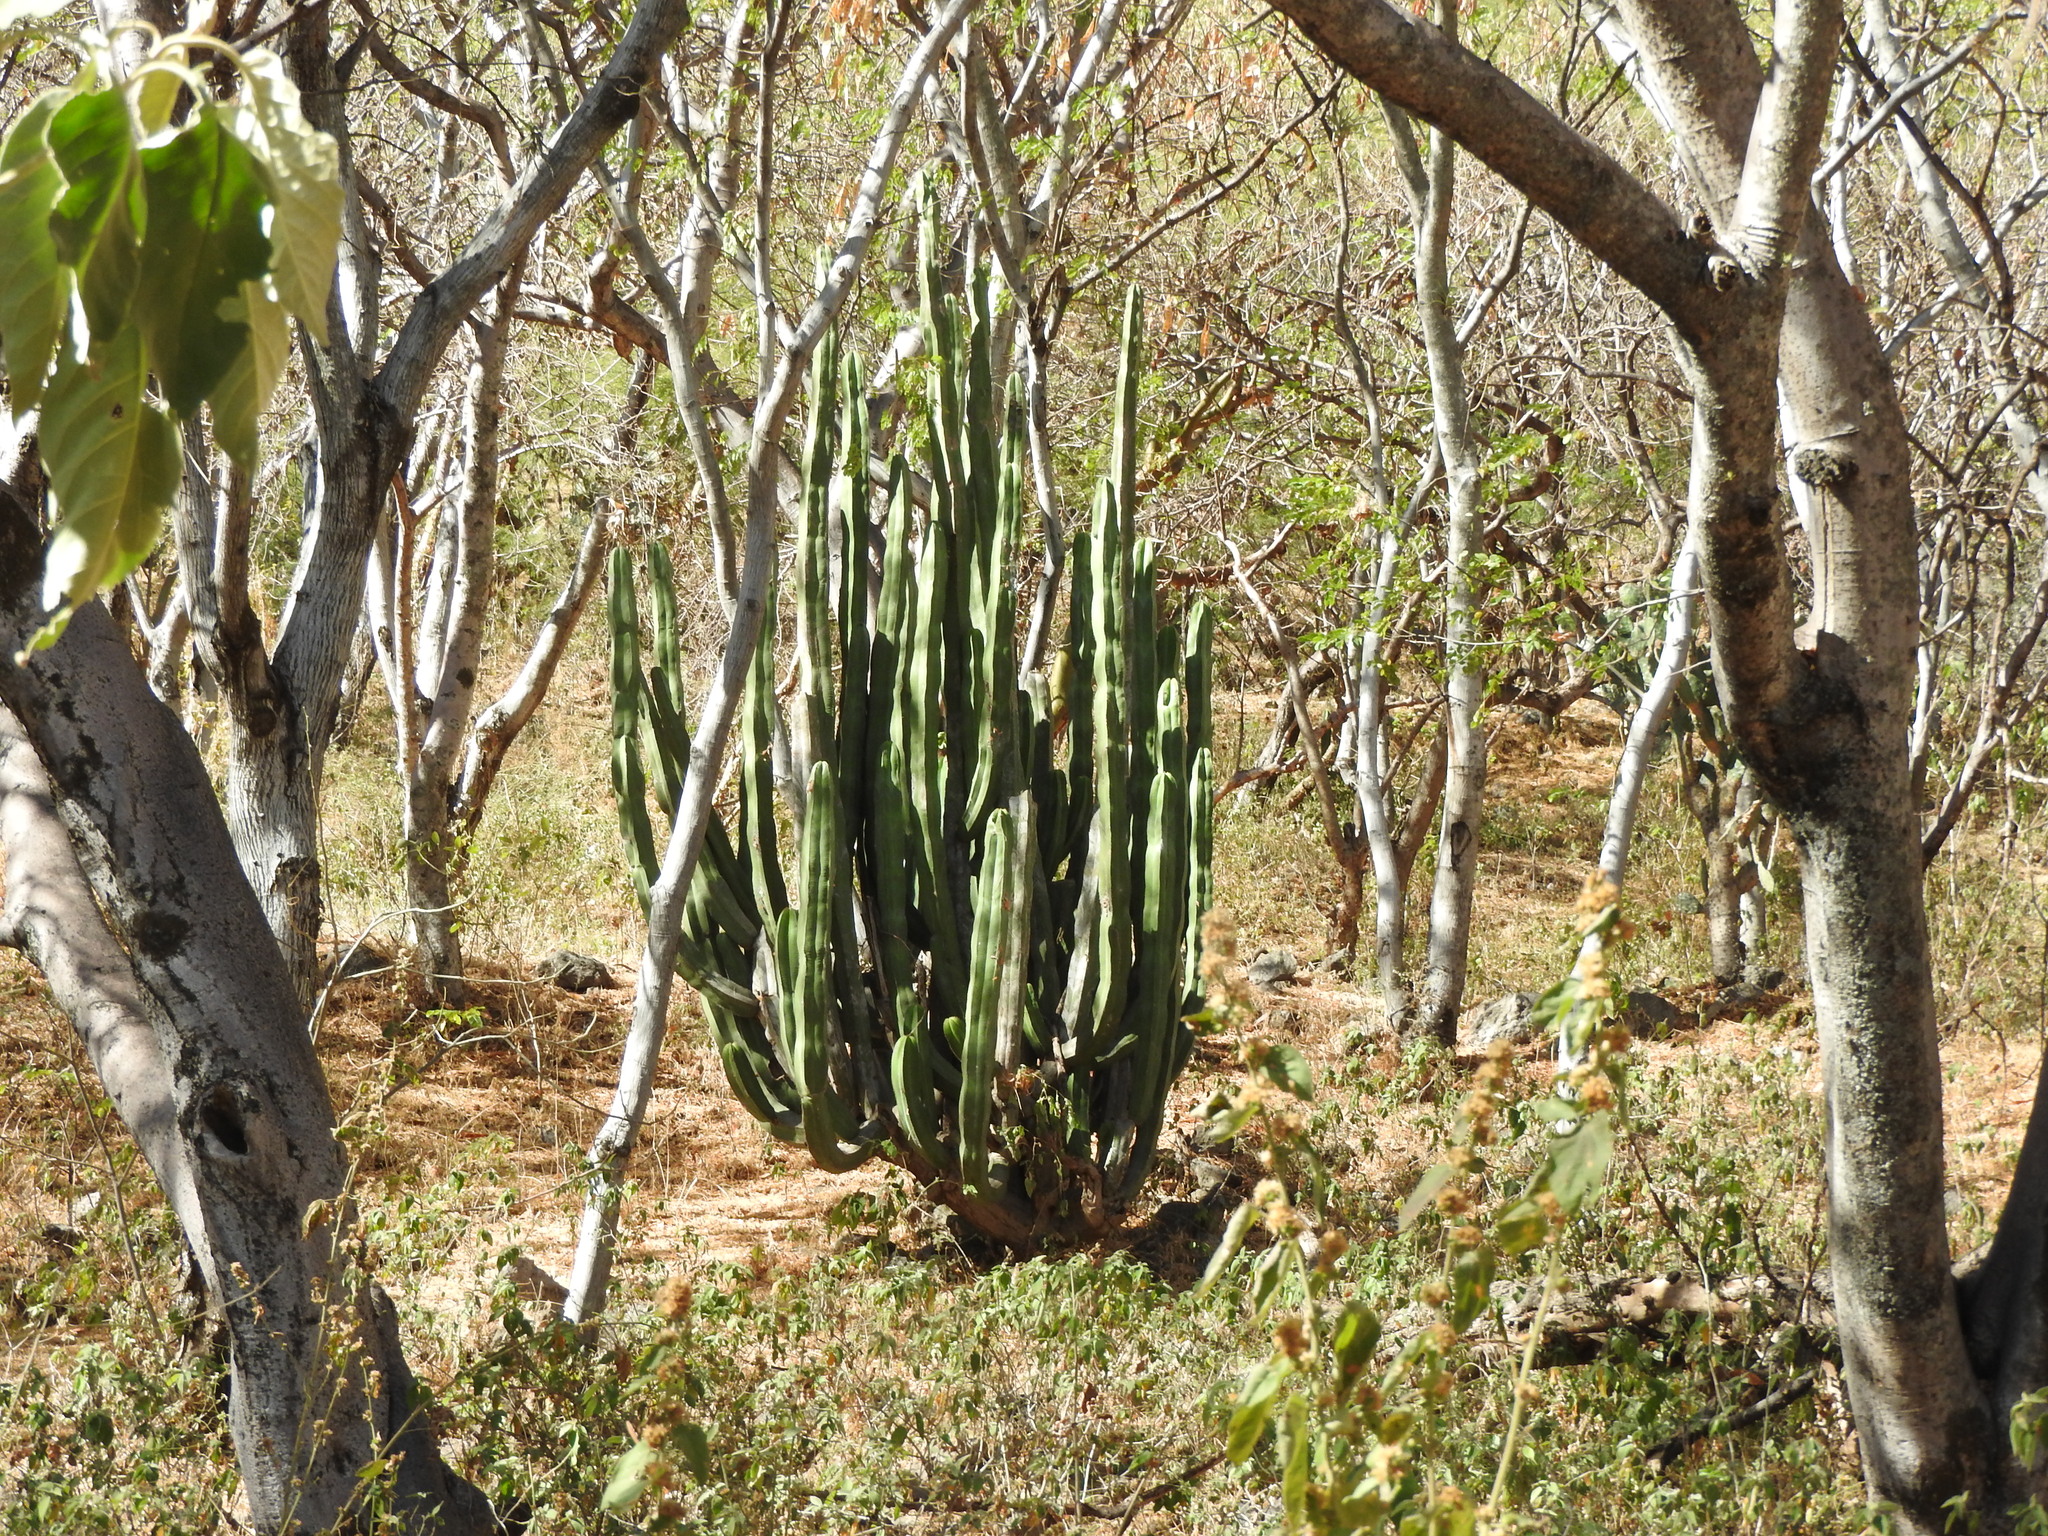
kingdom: Plantae
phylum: Tracheophyta
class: Magnoliopsida
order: Caryophyllales
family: Cactaceae
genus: Stenocereus
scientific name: Stenocereus dumortieri
